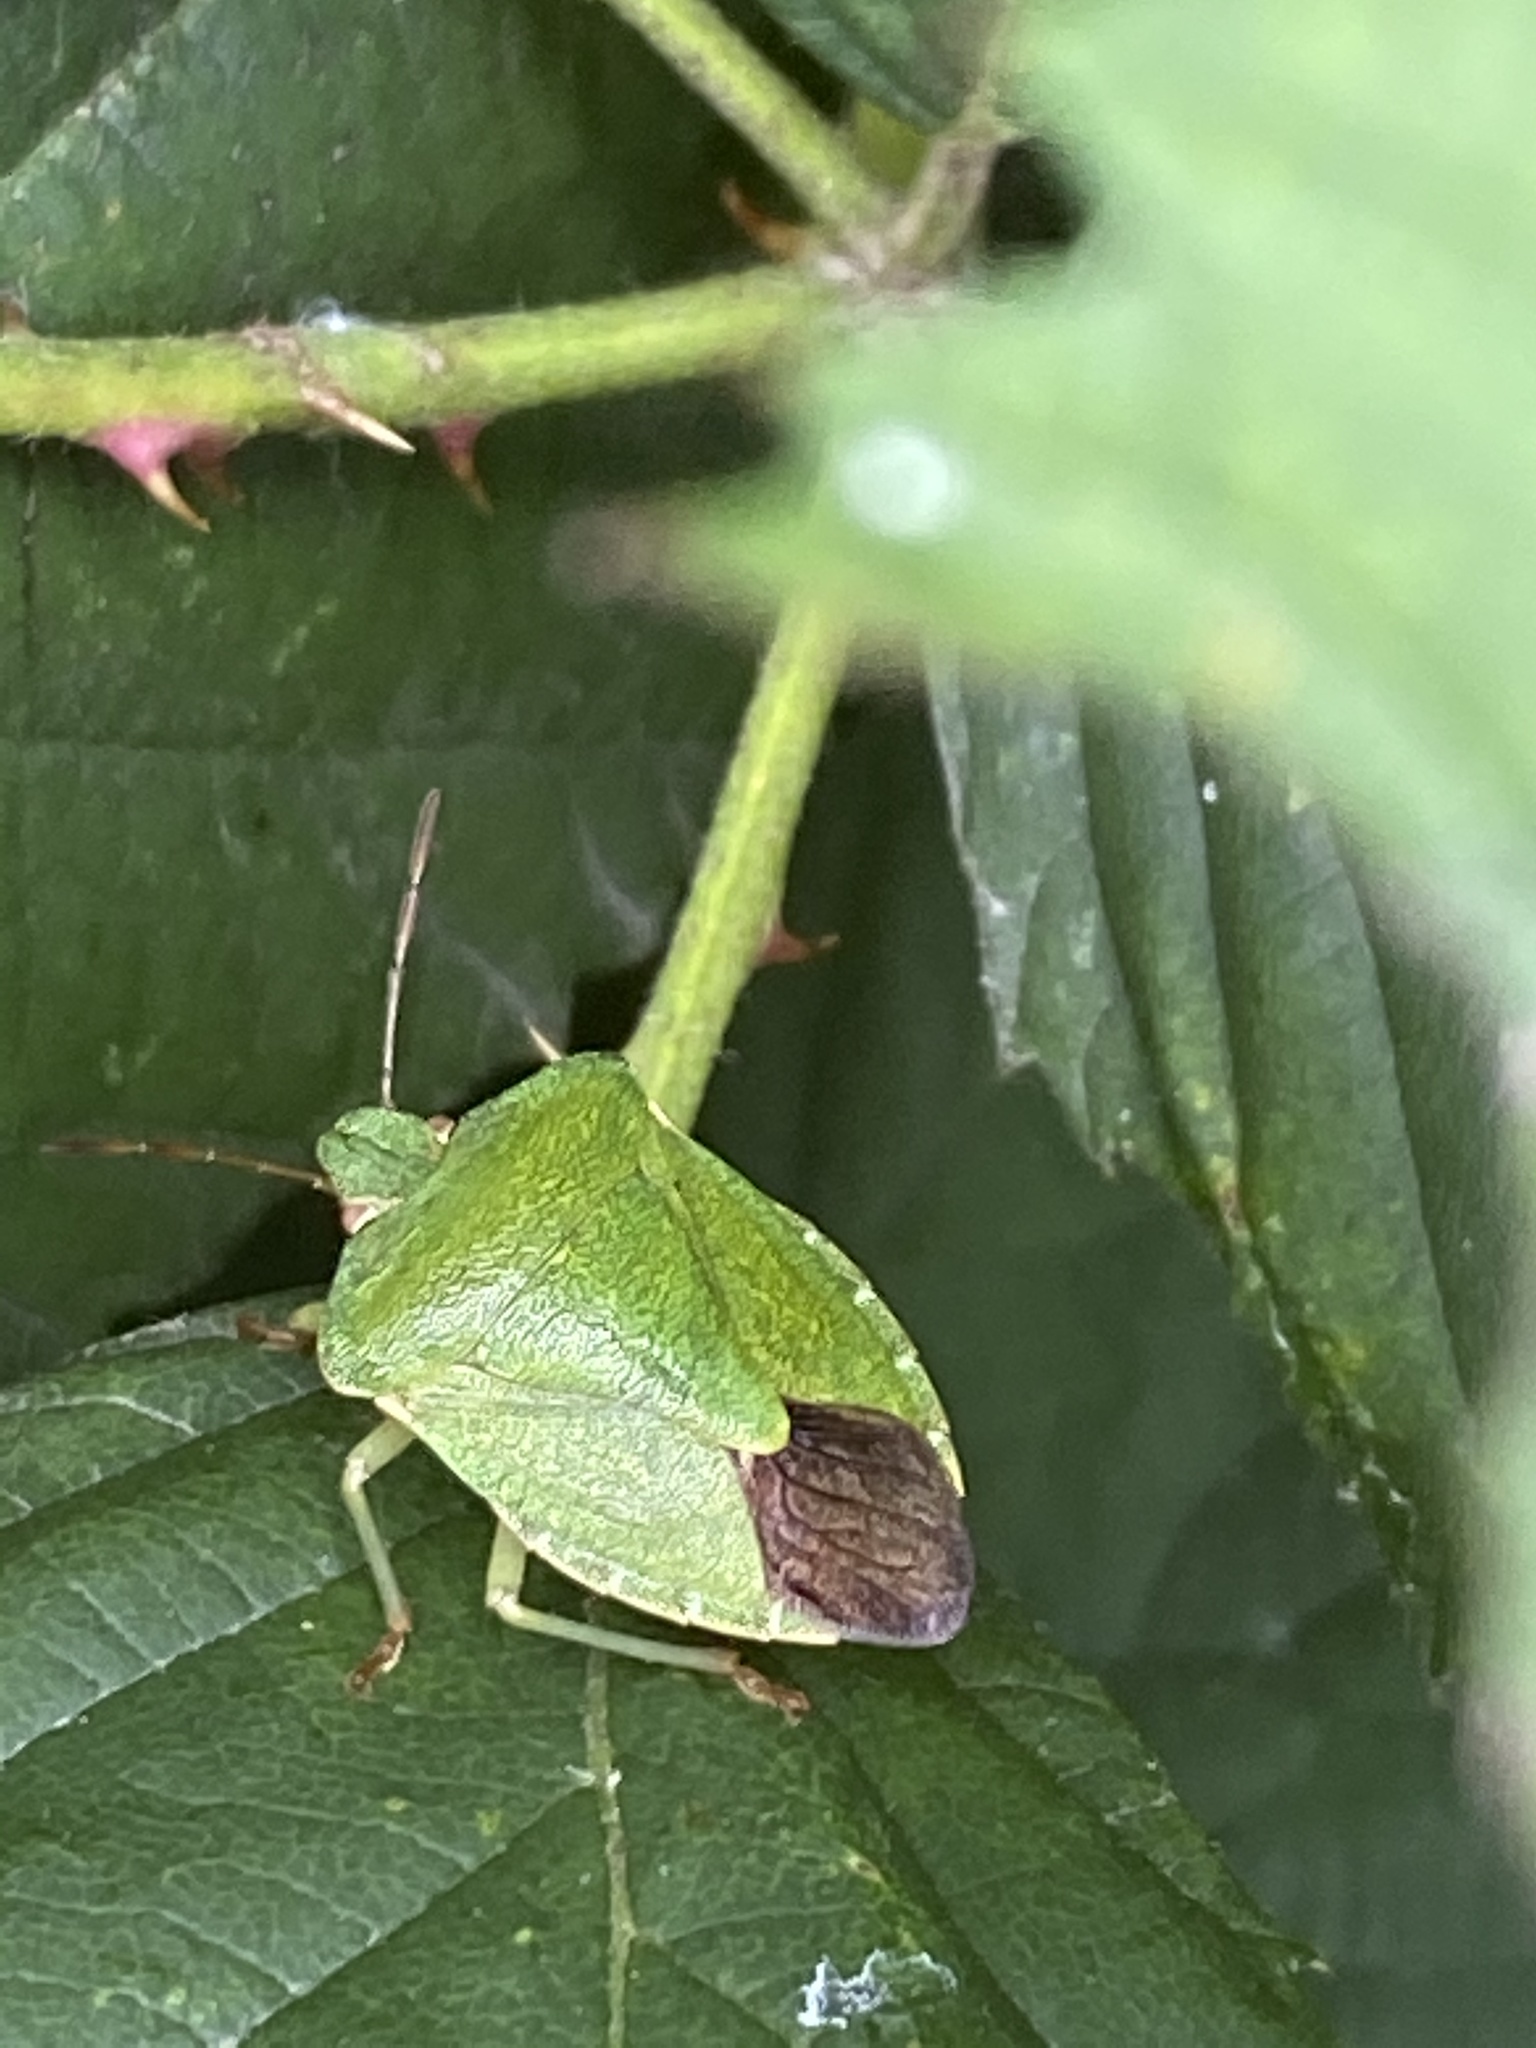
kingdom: Animalia
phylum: Arthropoda
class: Insecta
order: Hemiptera
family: Pentatomidae
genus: Palomena
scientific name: Palomena prasina
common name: Green shieldbug
